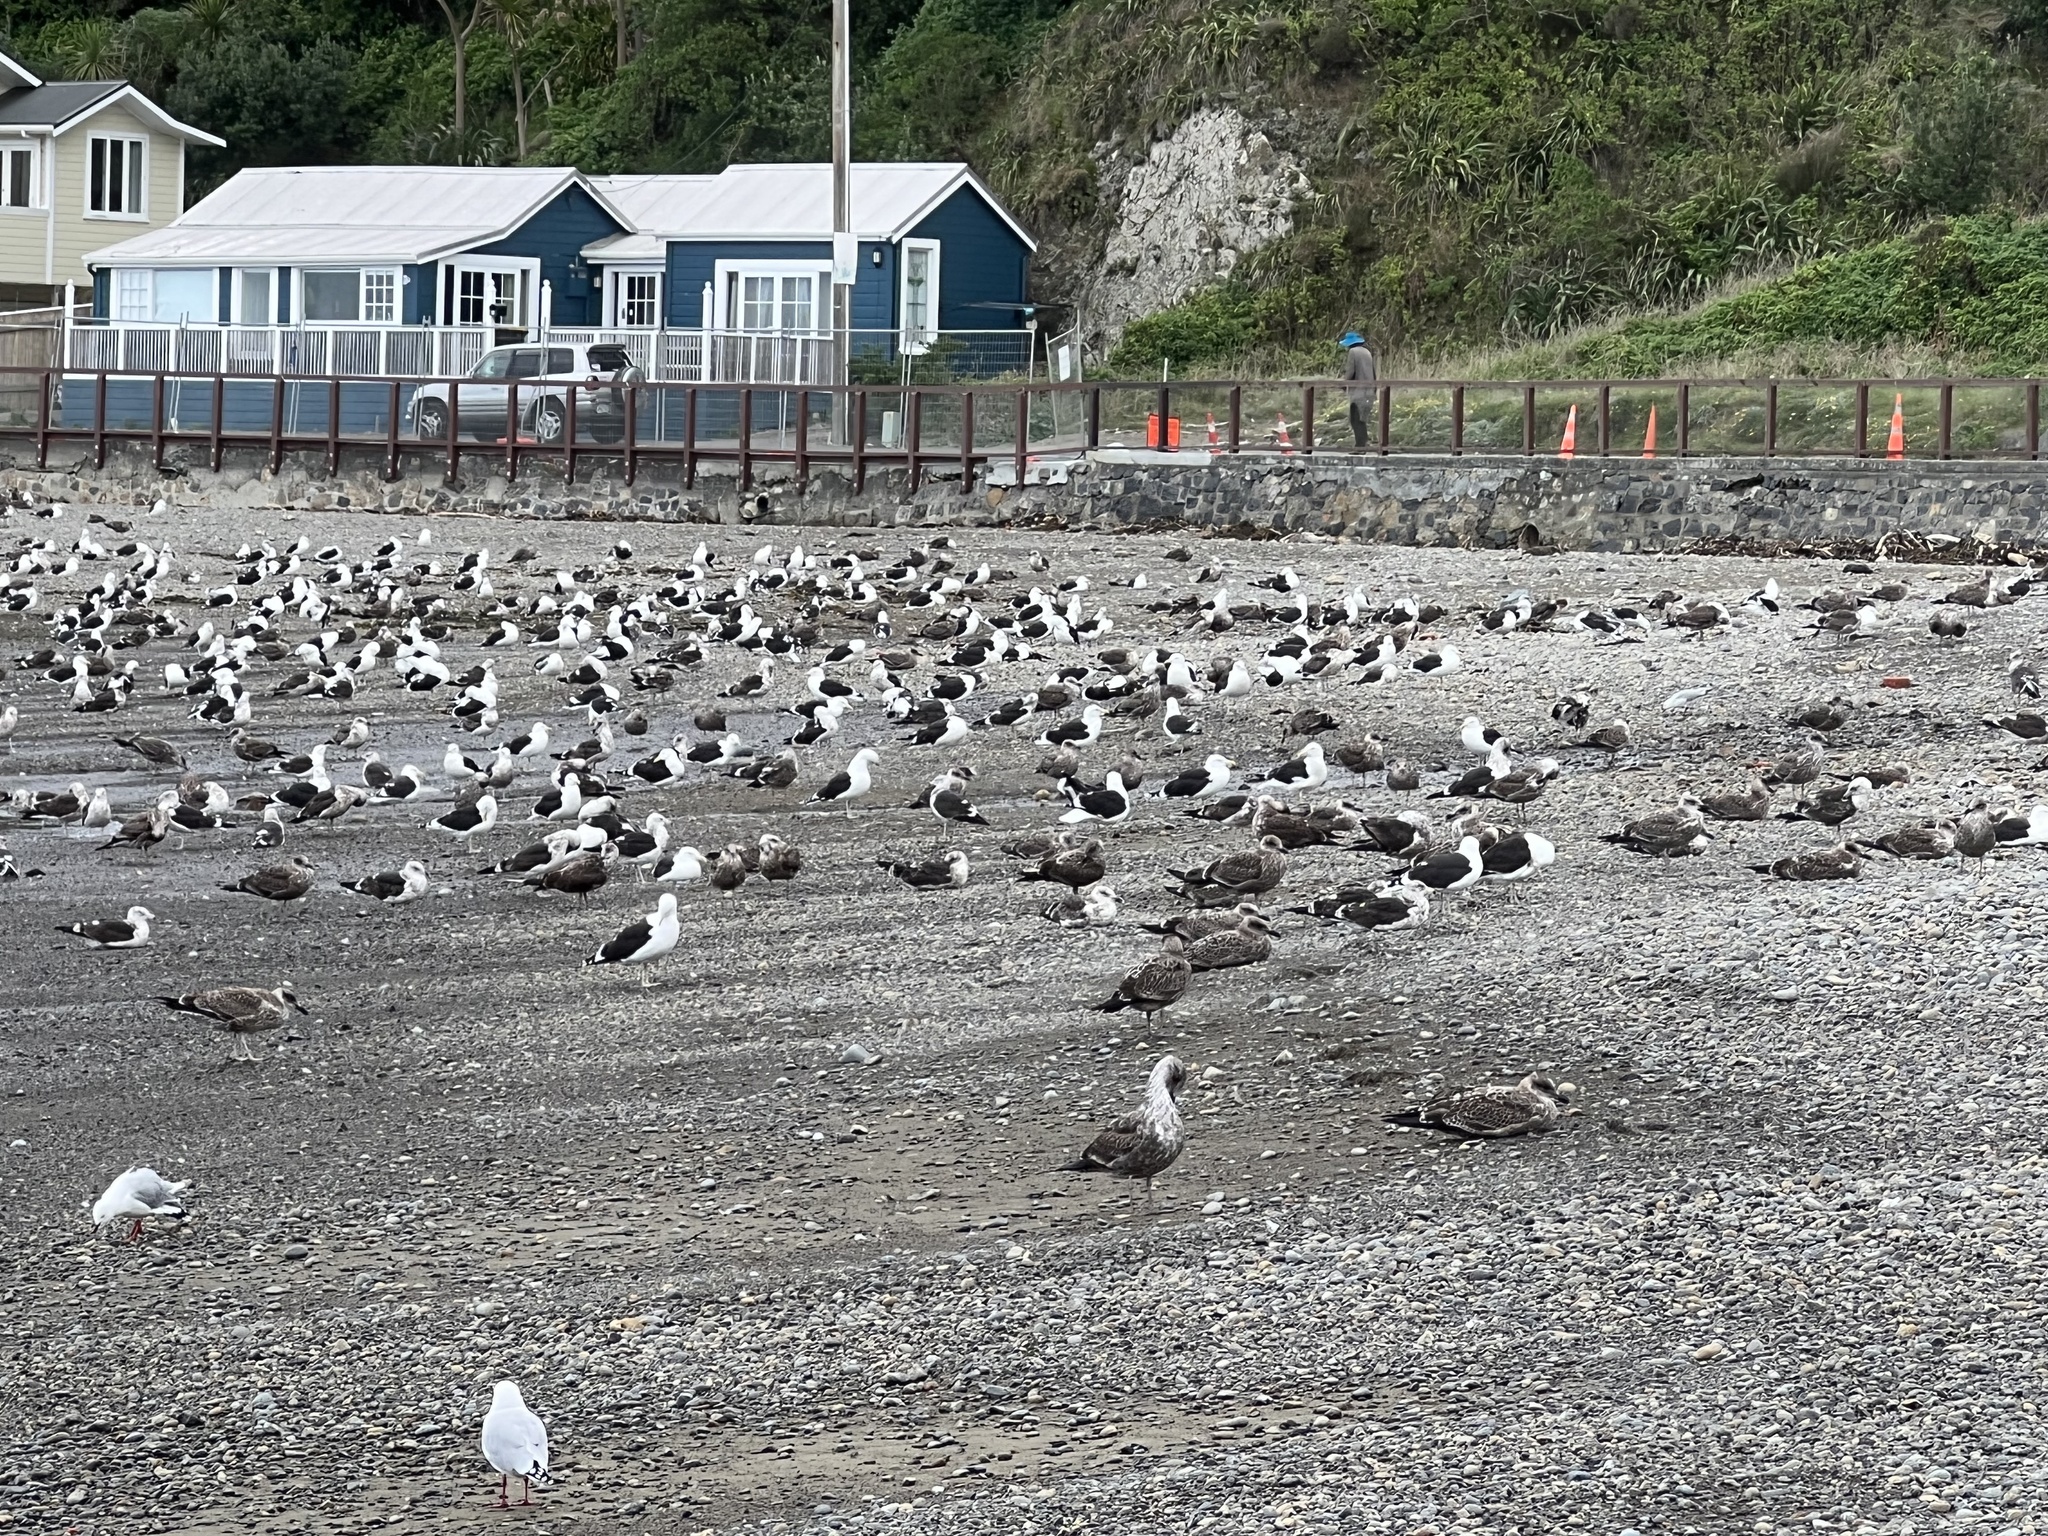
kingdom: Animalia
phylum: Chordata
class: Aves
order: Charadriiformes
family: Laridae
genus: Larus
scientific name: Larus dominicanus
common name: Kelp gull
